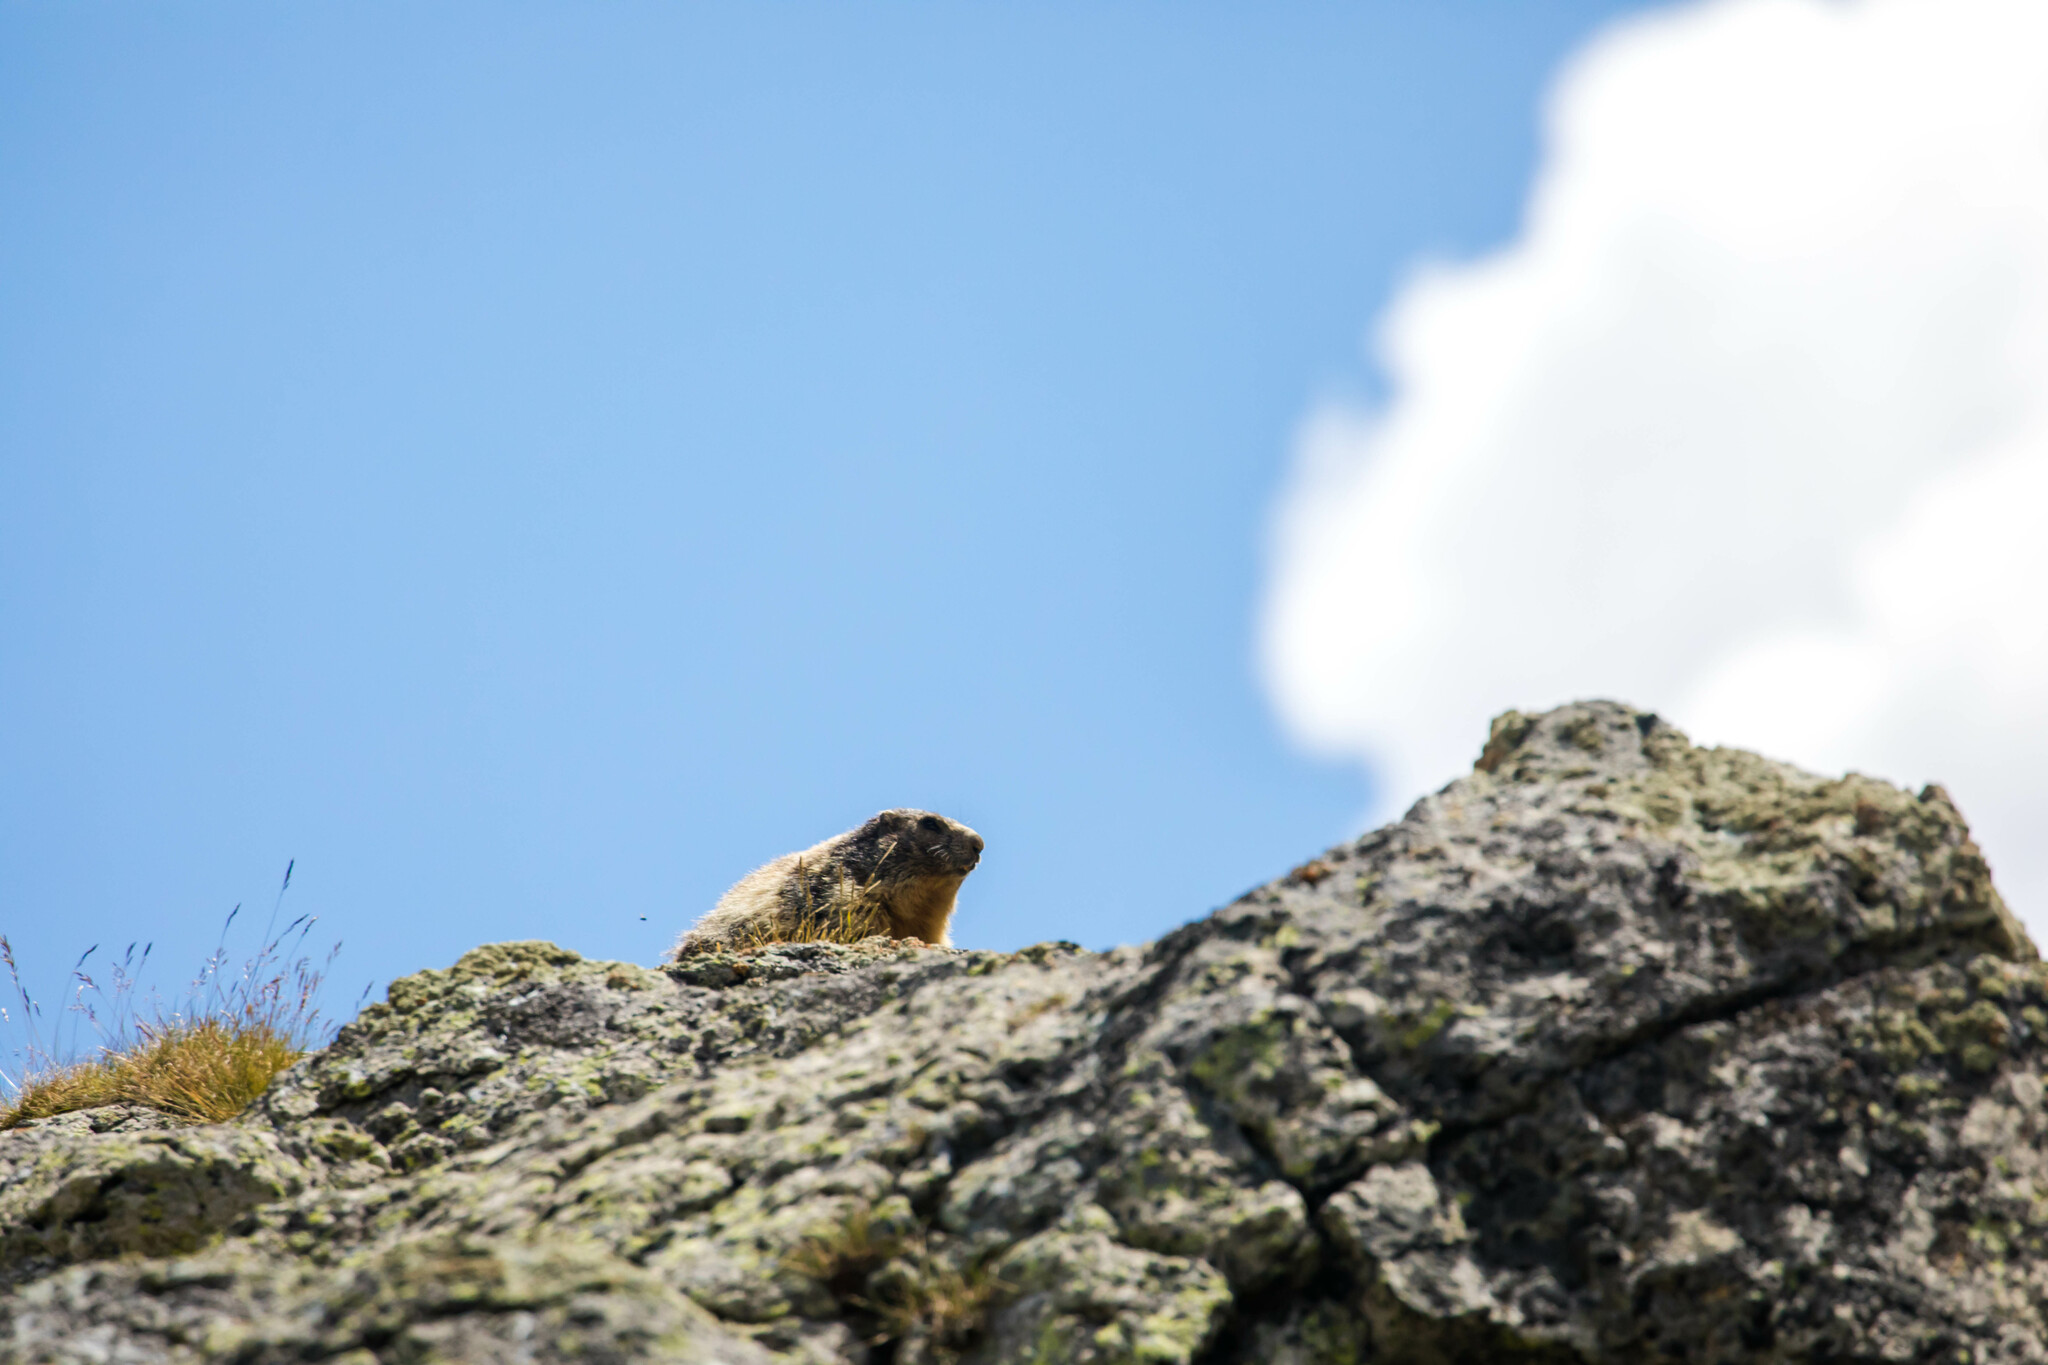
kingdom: Animalia
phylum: Chordata
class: Mammalia
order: Rodentia
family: Sciuridae
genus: Marmota
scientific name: Marmota marmota
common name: Alpine marmot
